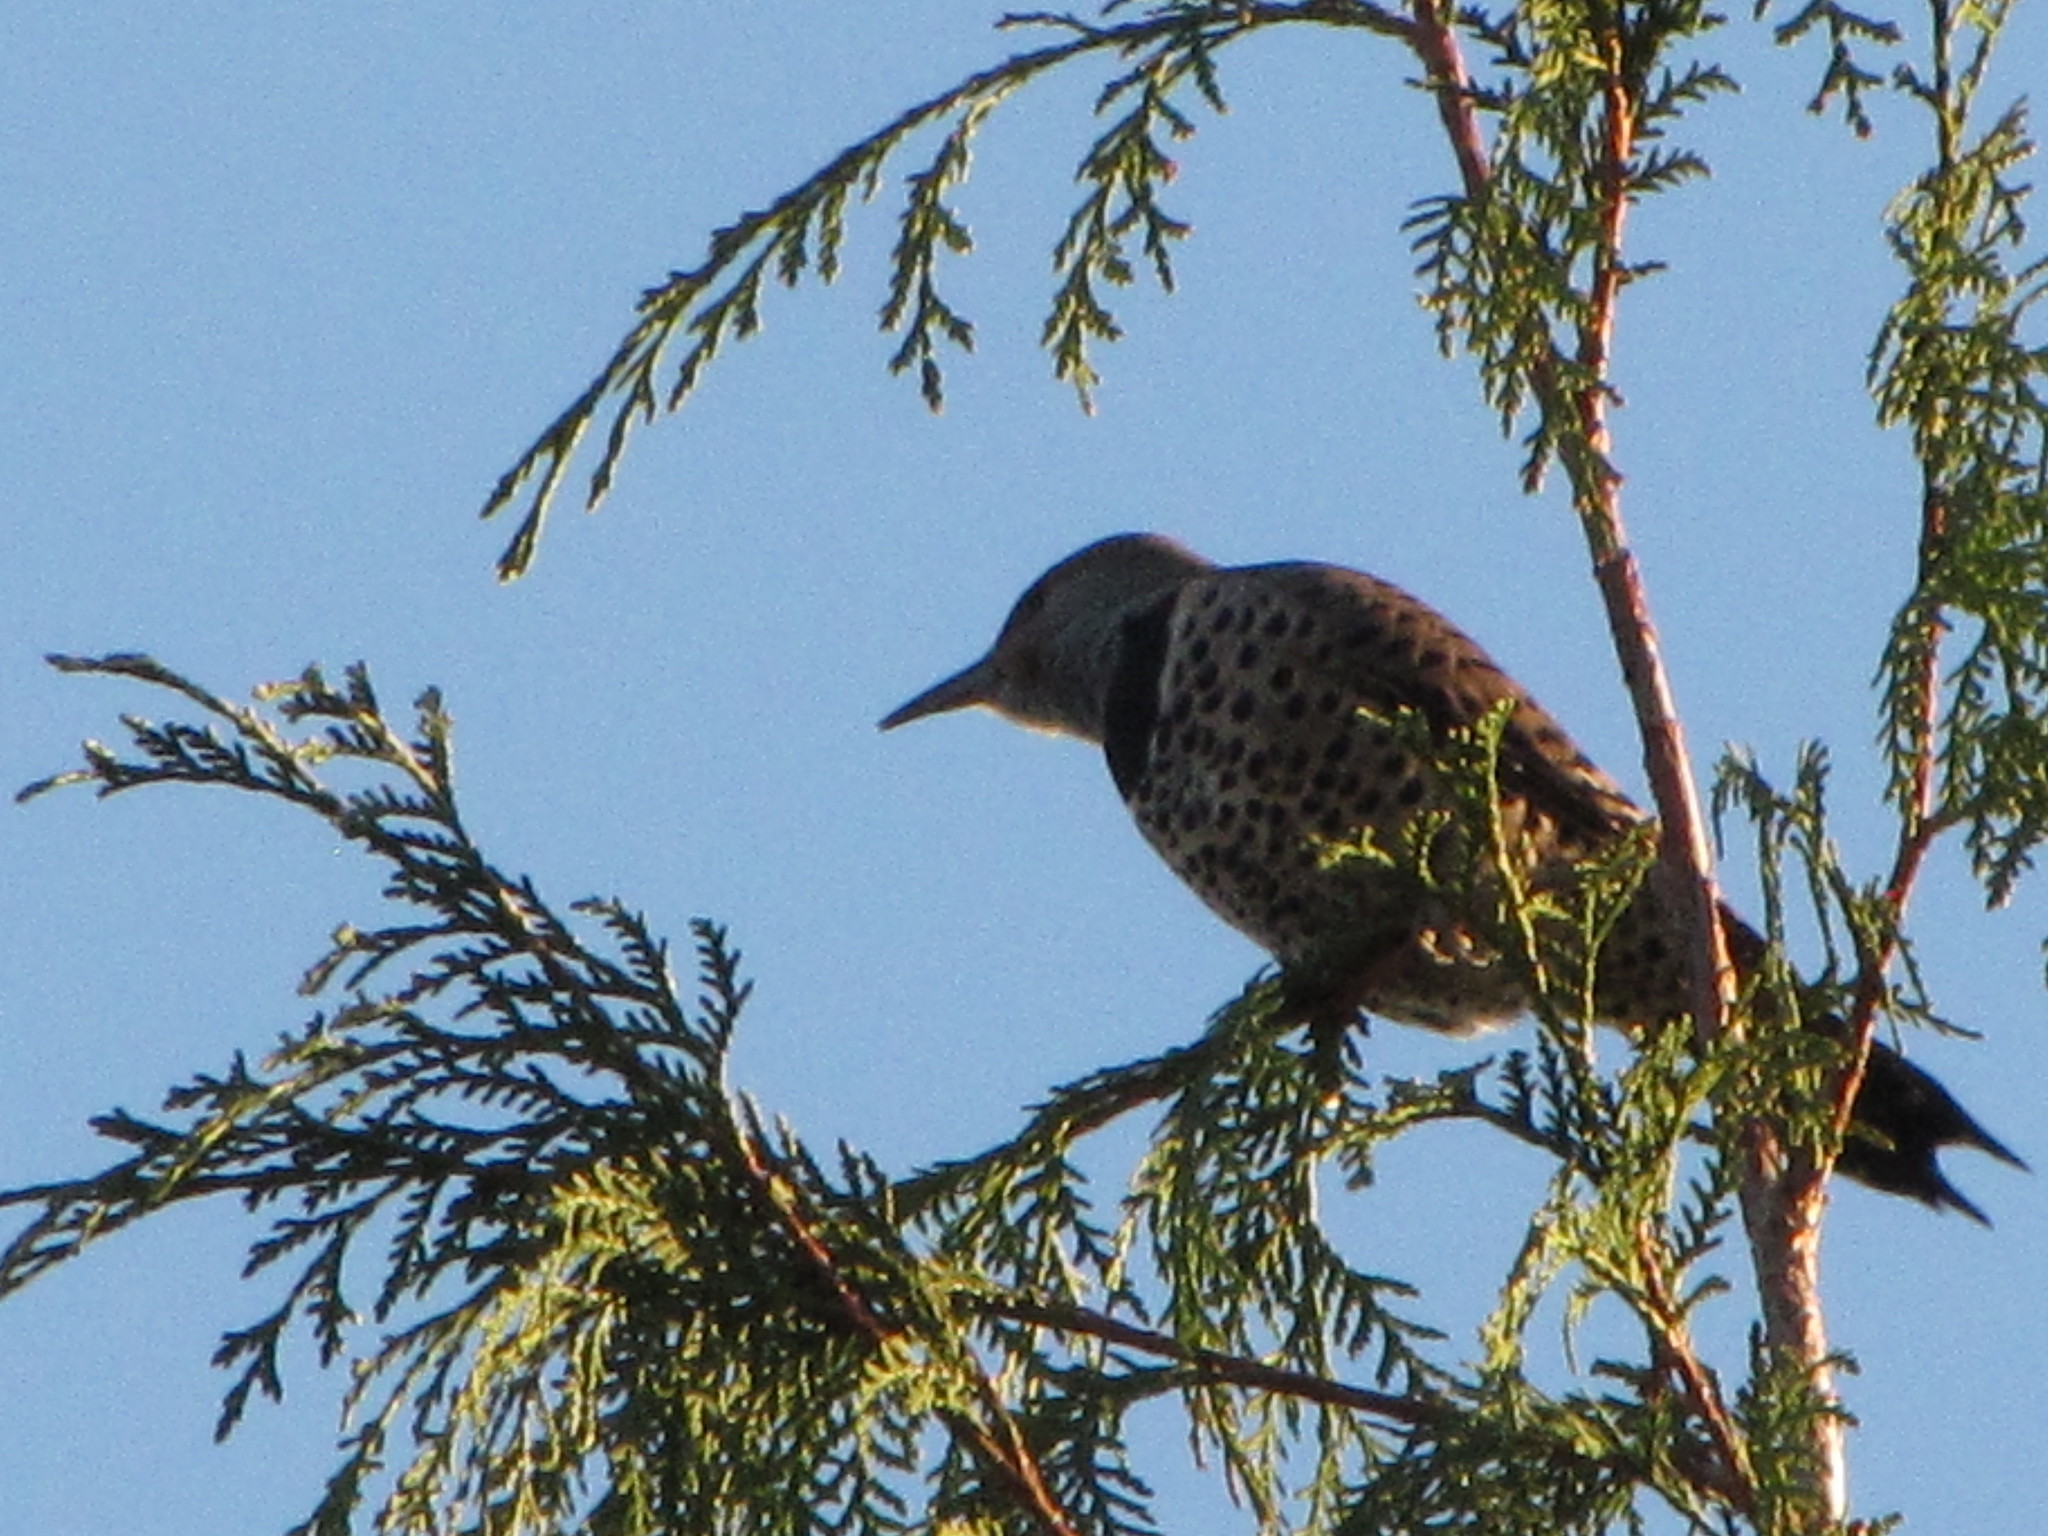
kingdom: Animalia
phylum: Chordata
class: Aves
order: Piciformes
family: Picidae
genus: Colaptes
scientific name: Colaptes auratus
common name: Northern flicker
